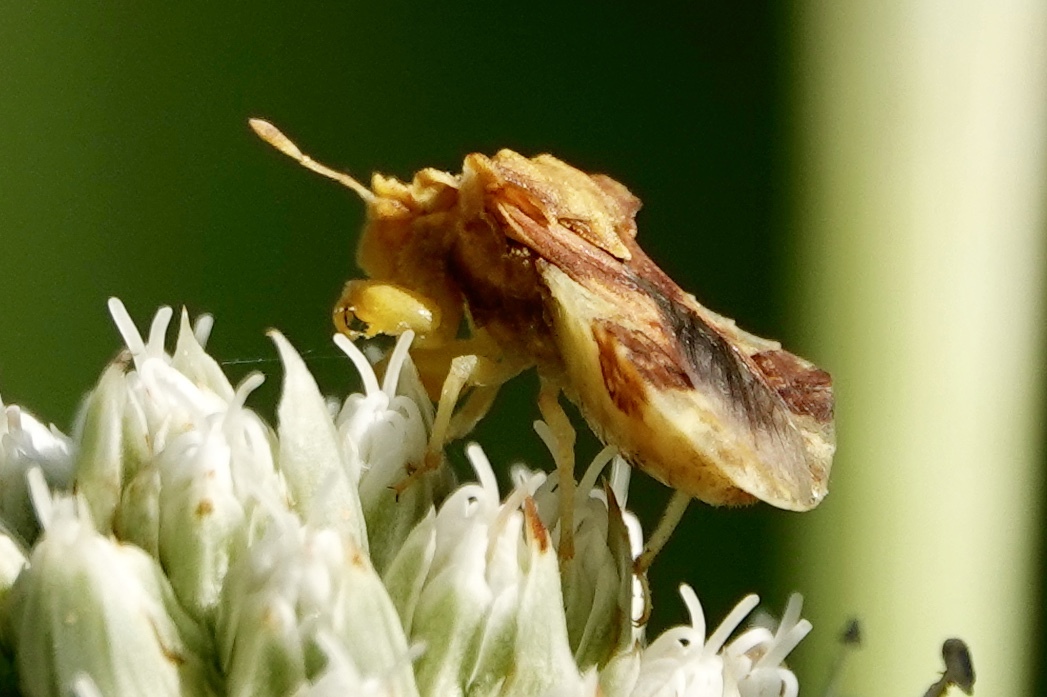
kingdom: Animalia
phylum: Arthropoda
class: Insecta
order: Hemiptera
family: Reduviidae
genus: Phymata
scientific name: Phymata fasciata
